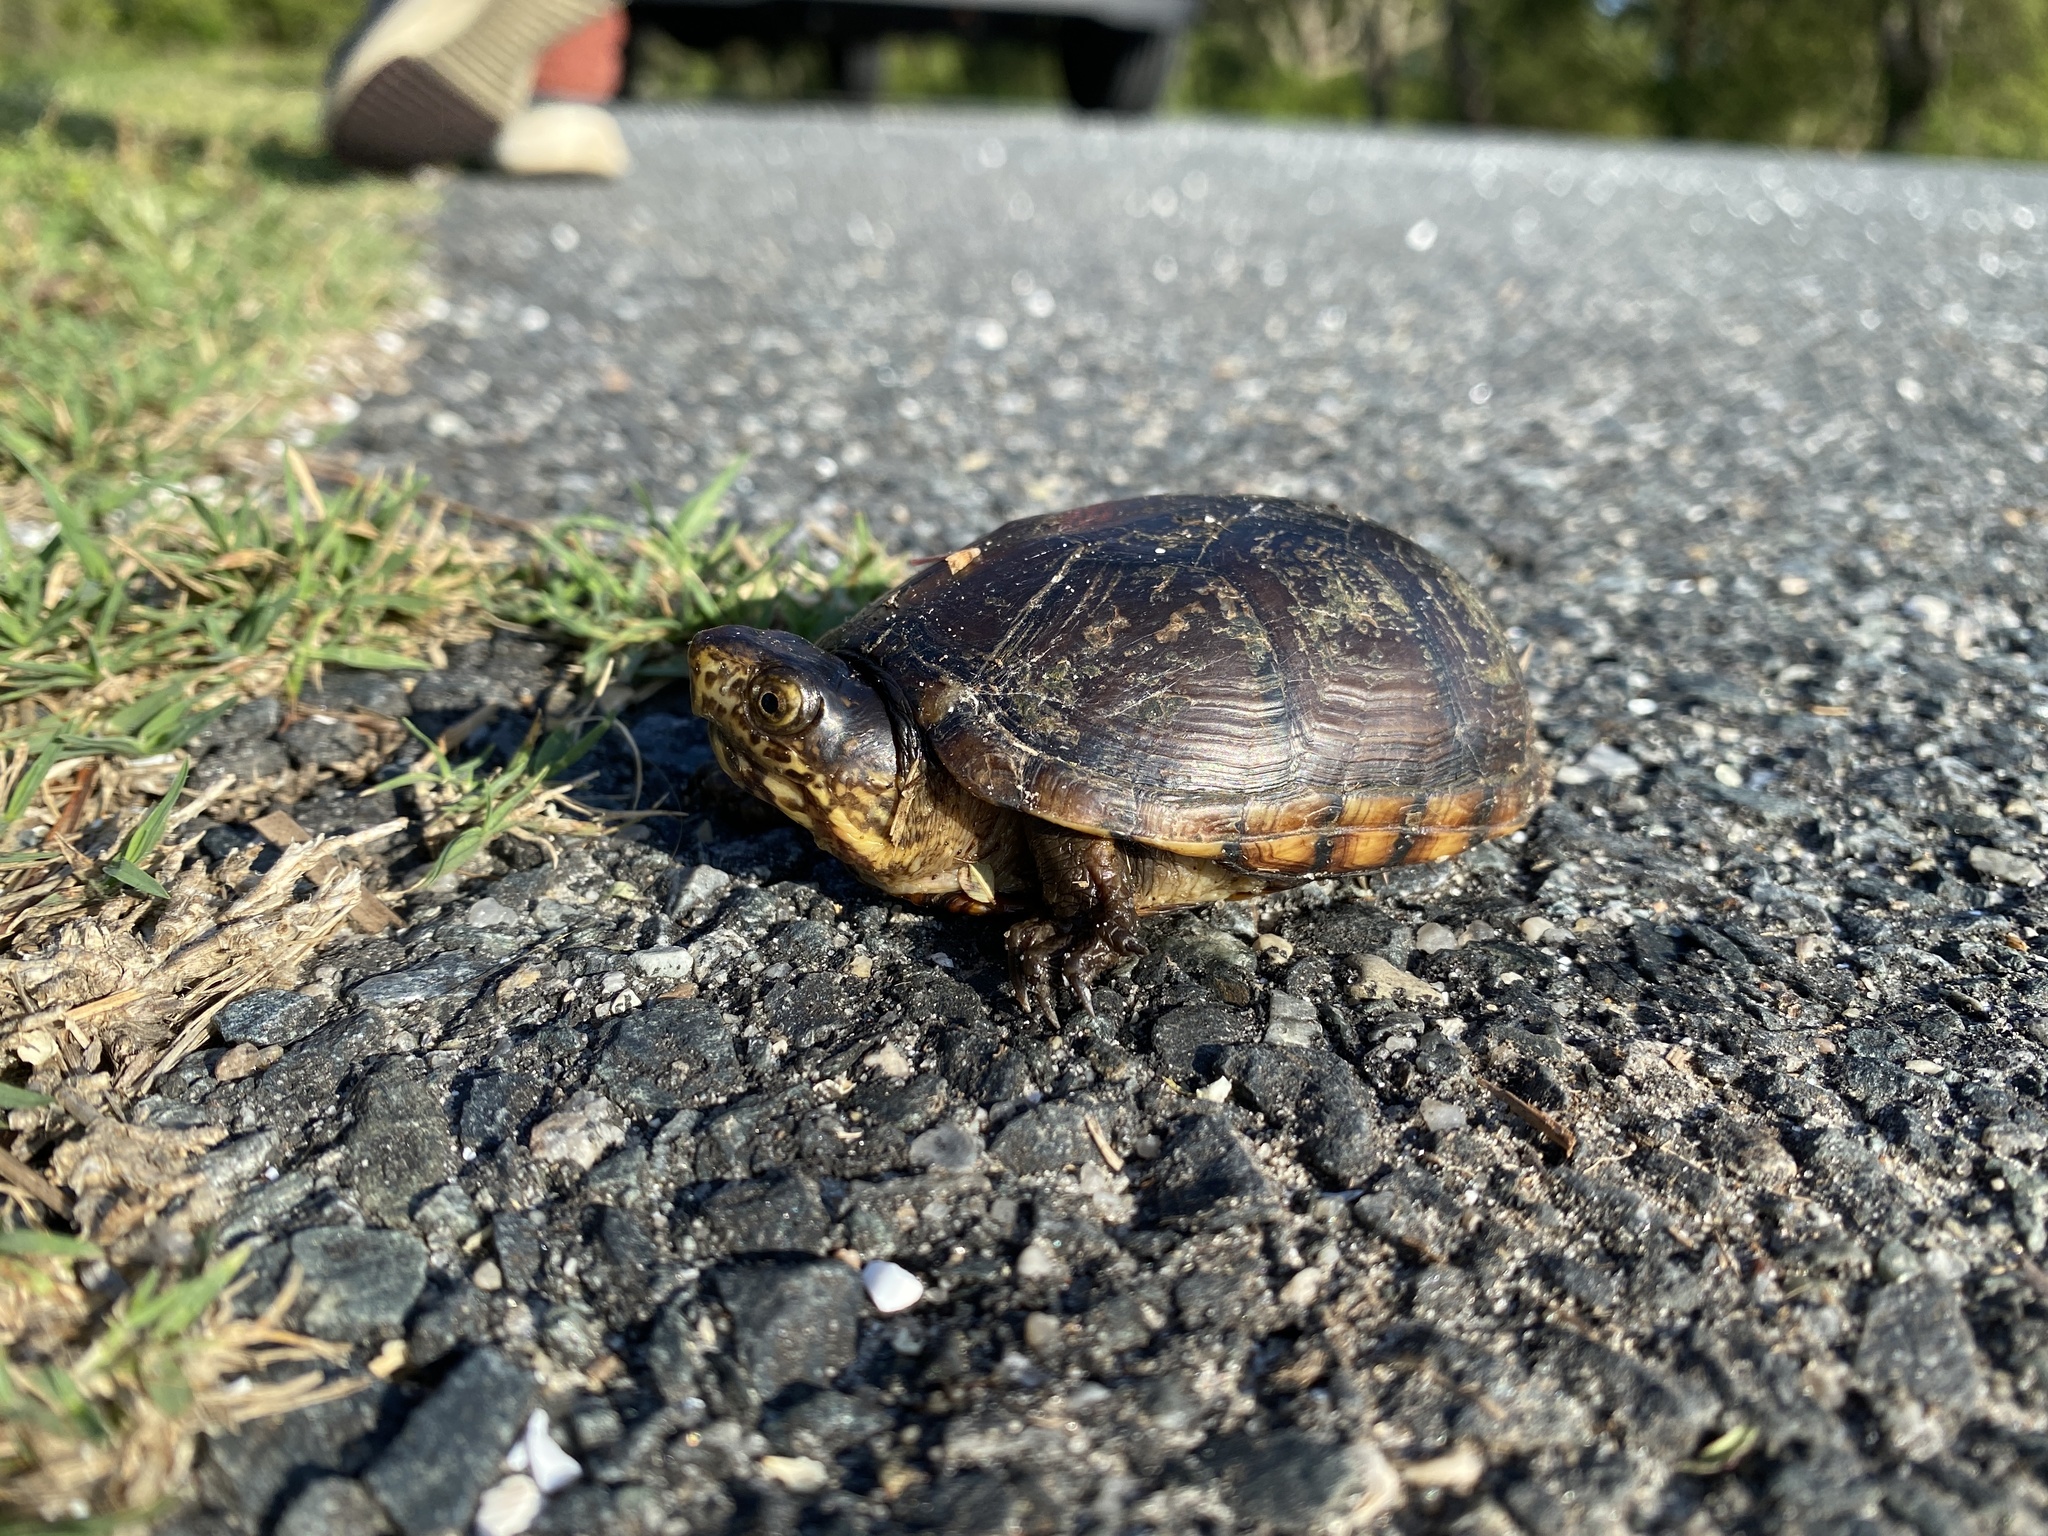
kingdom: Animalia
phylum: Chordata
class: Testudines
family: Kinosternidae
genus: Kinosternon
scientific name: Kinosternon subrubrum
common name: Eastern mud turtle
